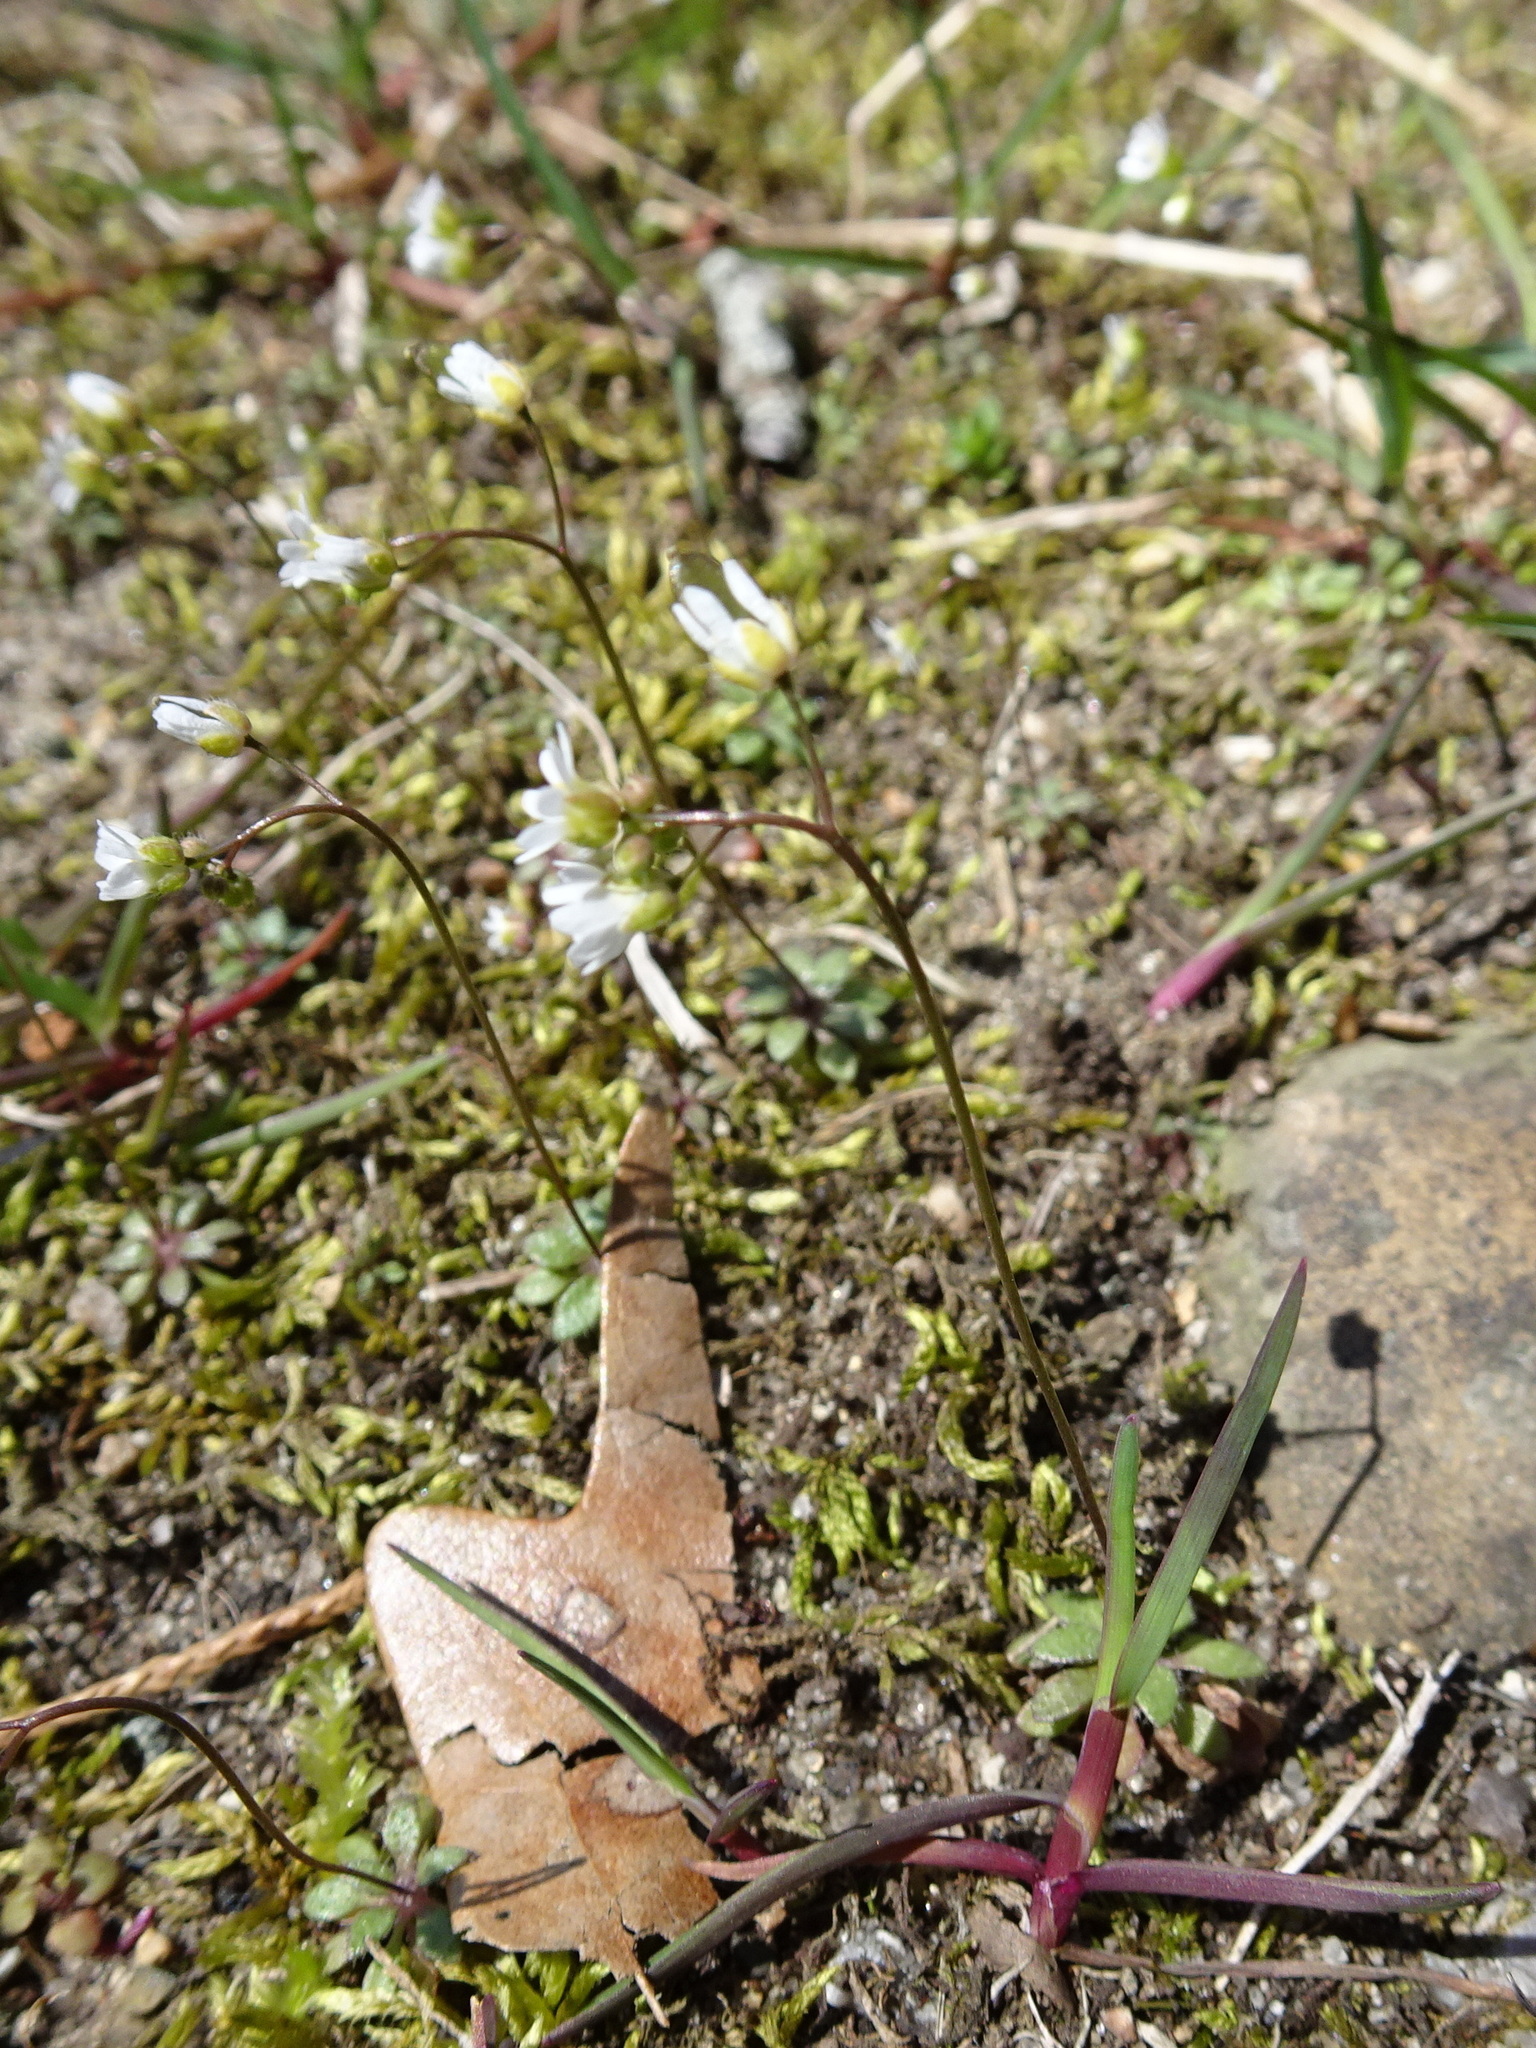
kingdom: Plantae
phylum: Tracheophyta
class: Magnoliopsida
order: Brassicales
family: Brassicaceae
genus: Draba
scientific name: Draba verna
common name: Spring draba
